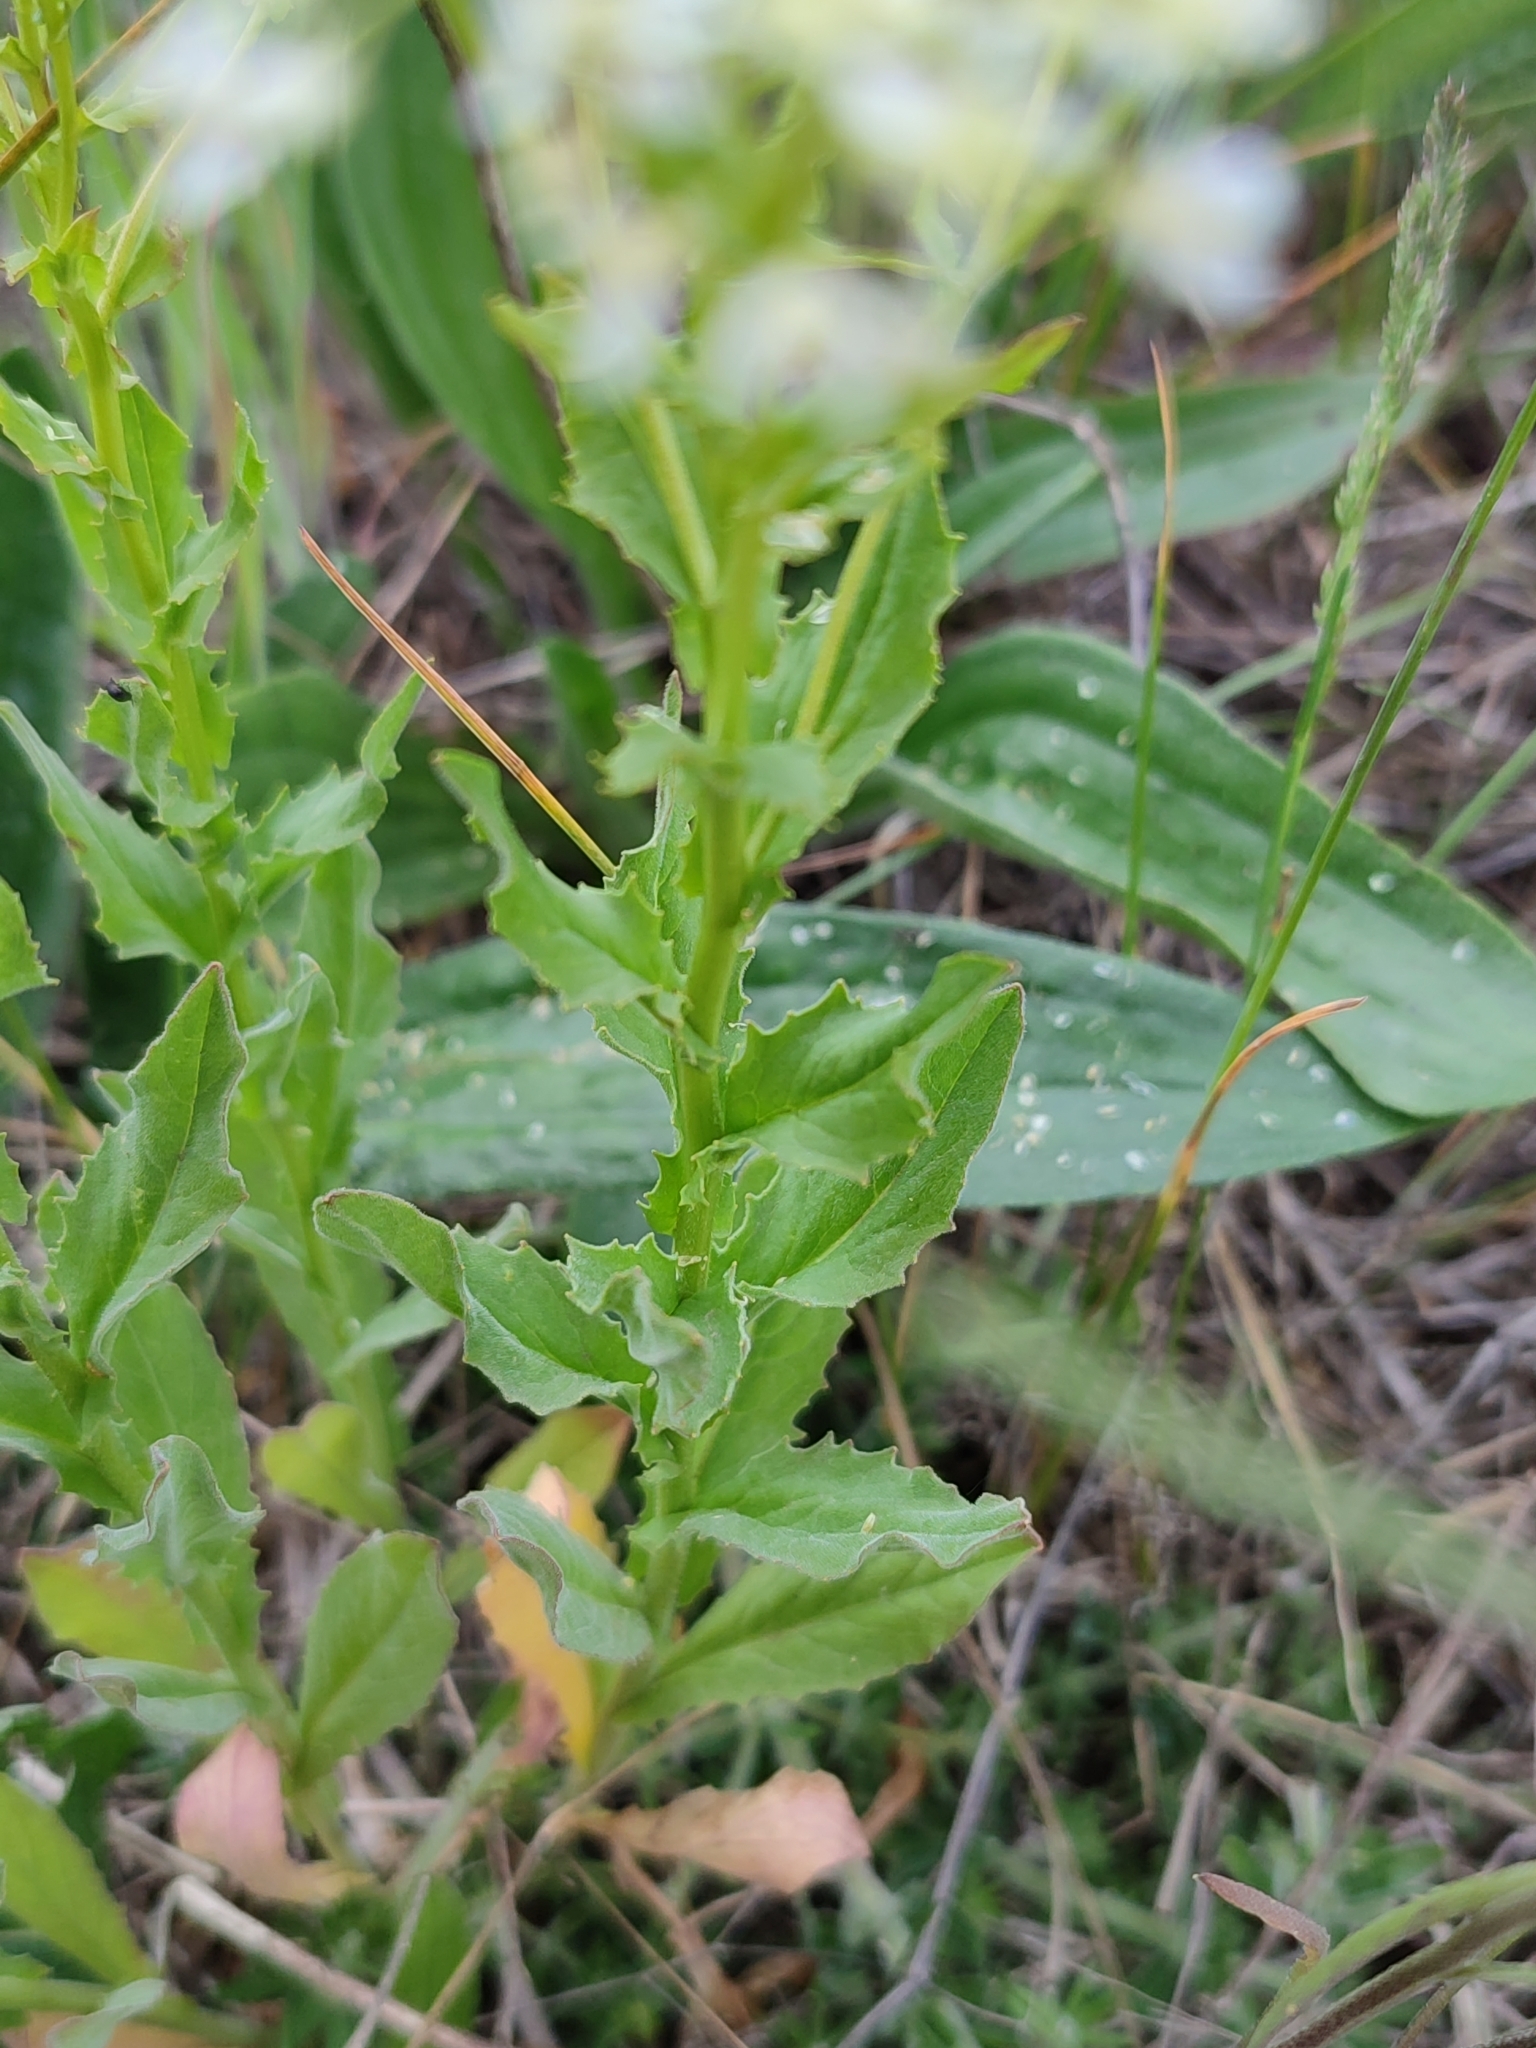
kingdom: Plantae
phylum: Tracheophyta
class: Magnoliopsida
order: Brassicales
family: Brassicaceae
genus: Lepidium
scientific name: Lepidium draba
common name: Hoary cress
